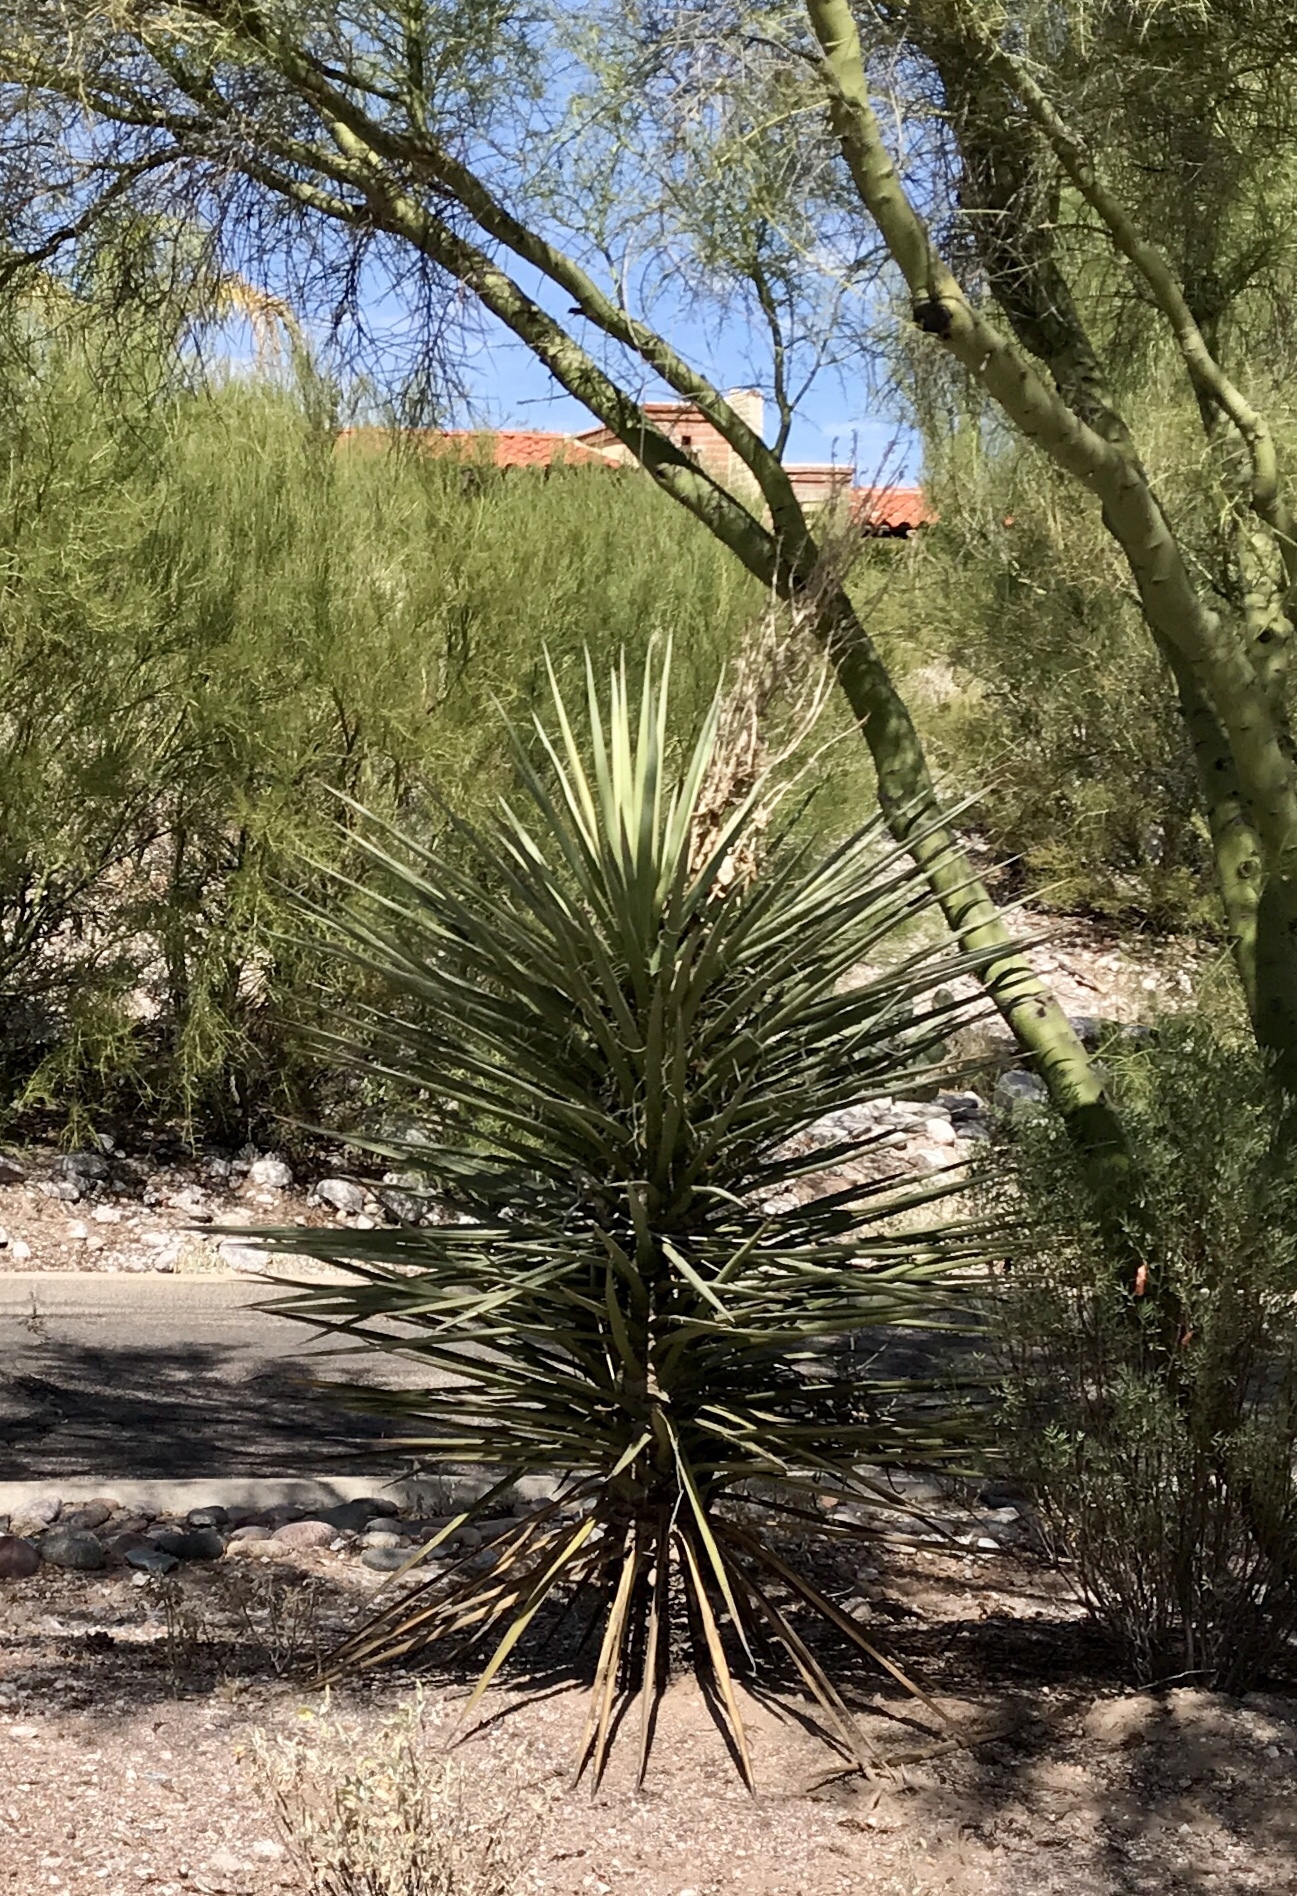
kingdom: Plantae
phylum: Tracheophyta
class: Liliopsida
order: Asparagales
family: Asparagaceae
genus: Yucca
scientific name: Yucca madrensis
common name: Hoary yucca
